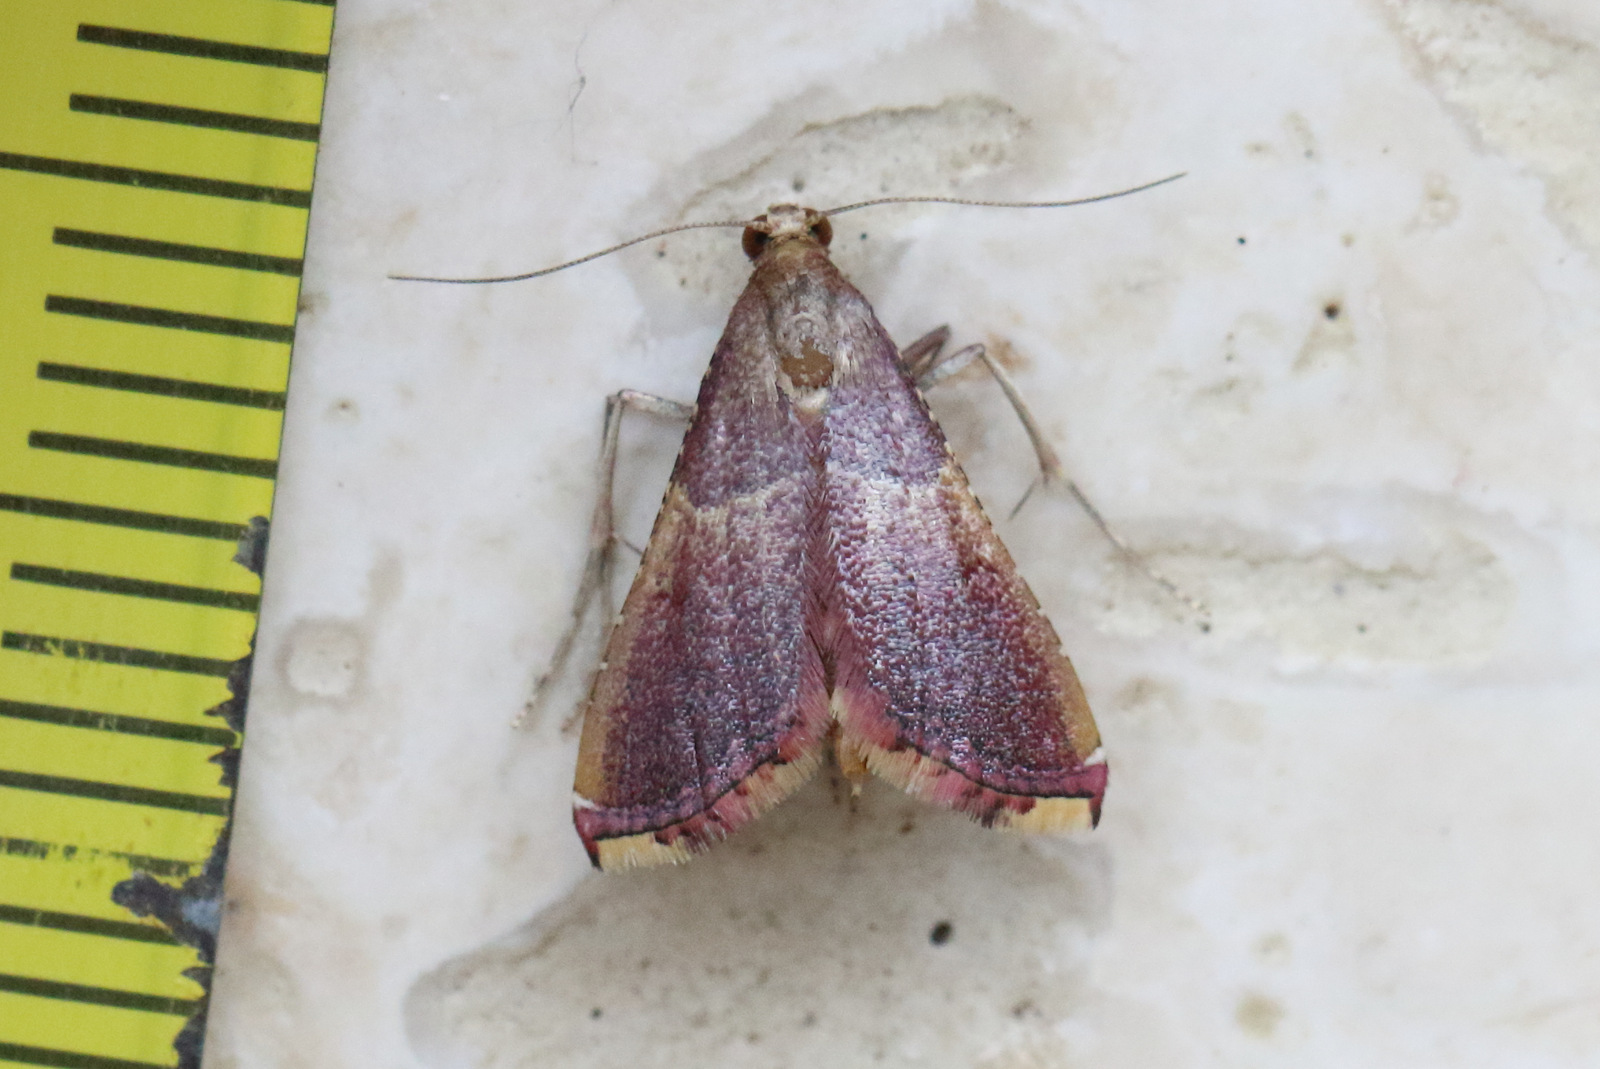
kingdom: Animalia
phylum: Arthropoda
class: Insecta
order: Lepidoptera
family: Pyralidae
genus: Endotricha
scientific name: Endotricha mesenterialis
